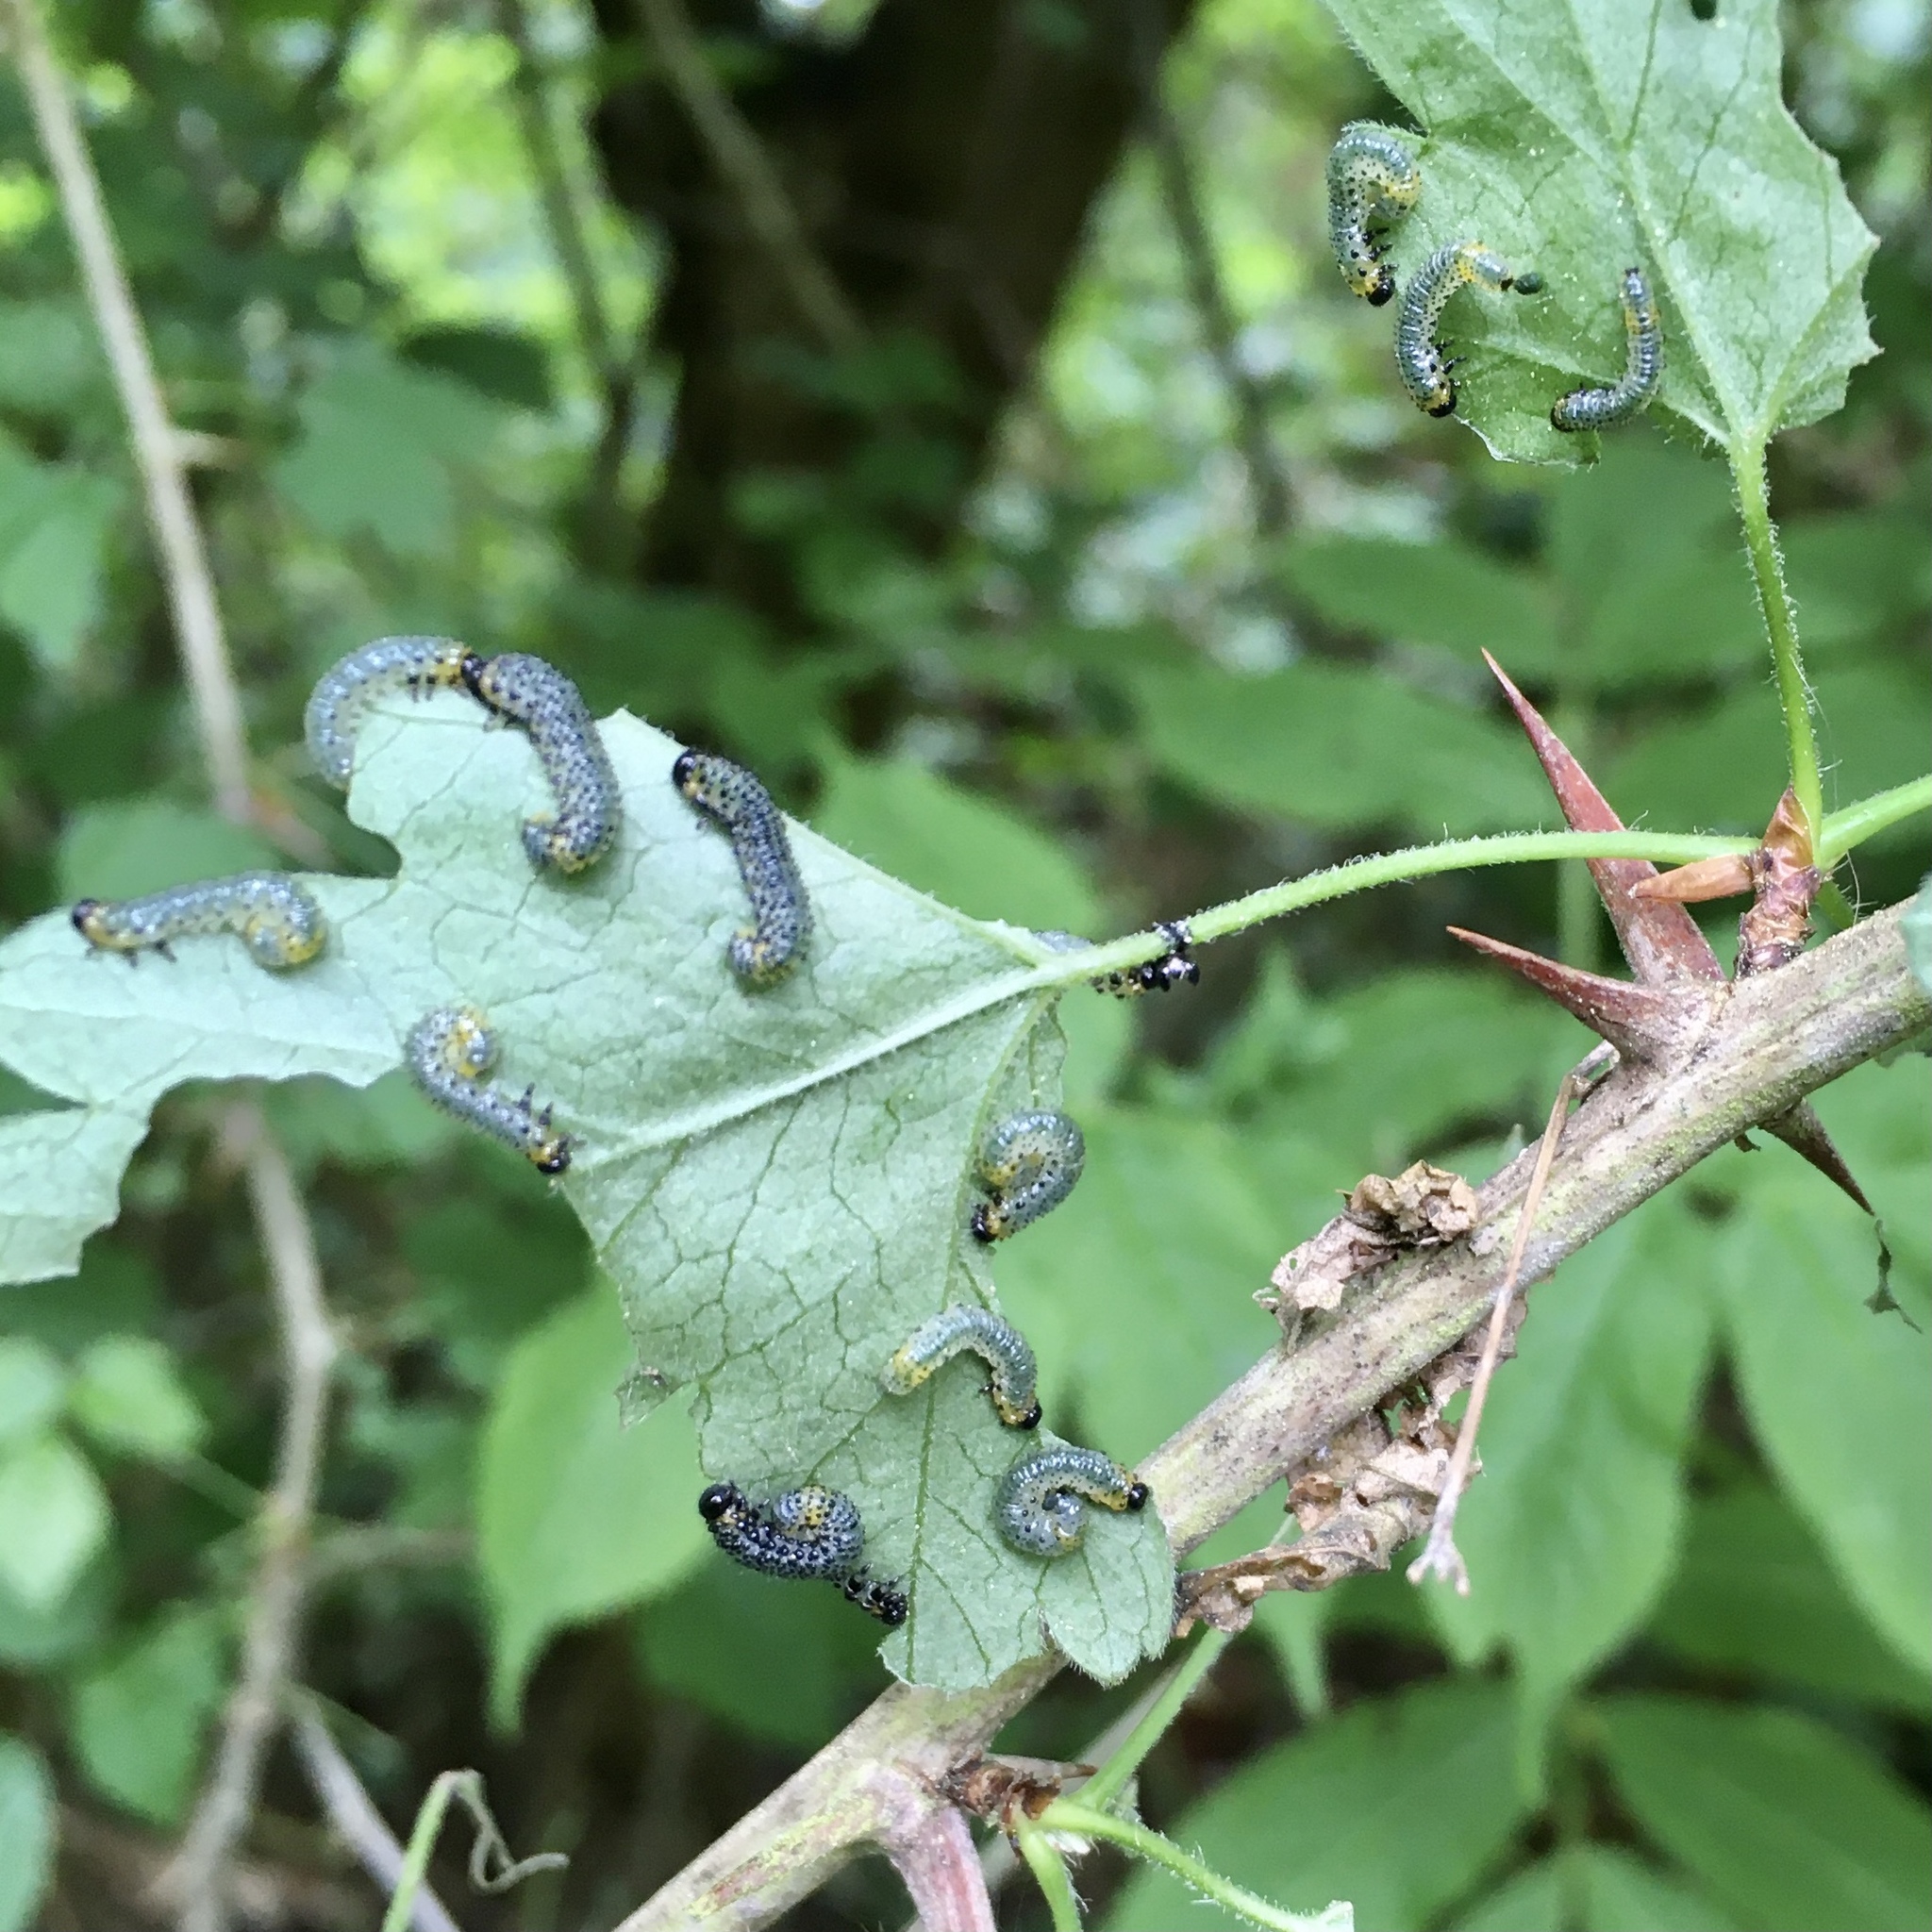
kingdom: Animalia
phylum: Arthropoda
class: Insecta
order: Hymenoptera
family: Tenthredinidae
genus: Nematus
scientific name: Nematus ribesii
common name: Imported currantworm
